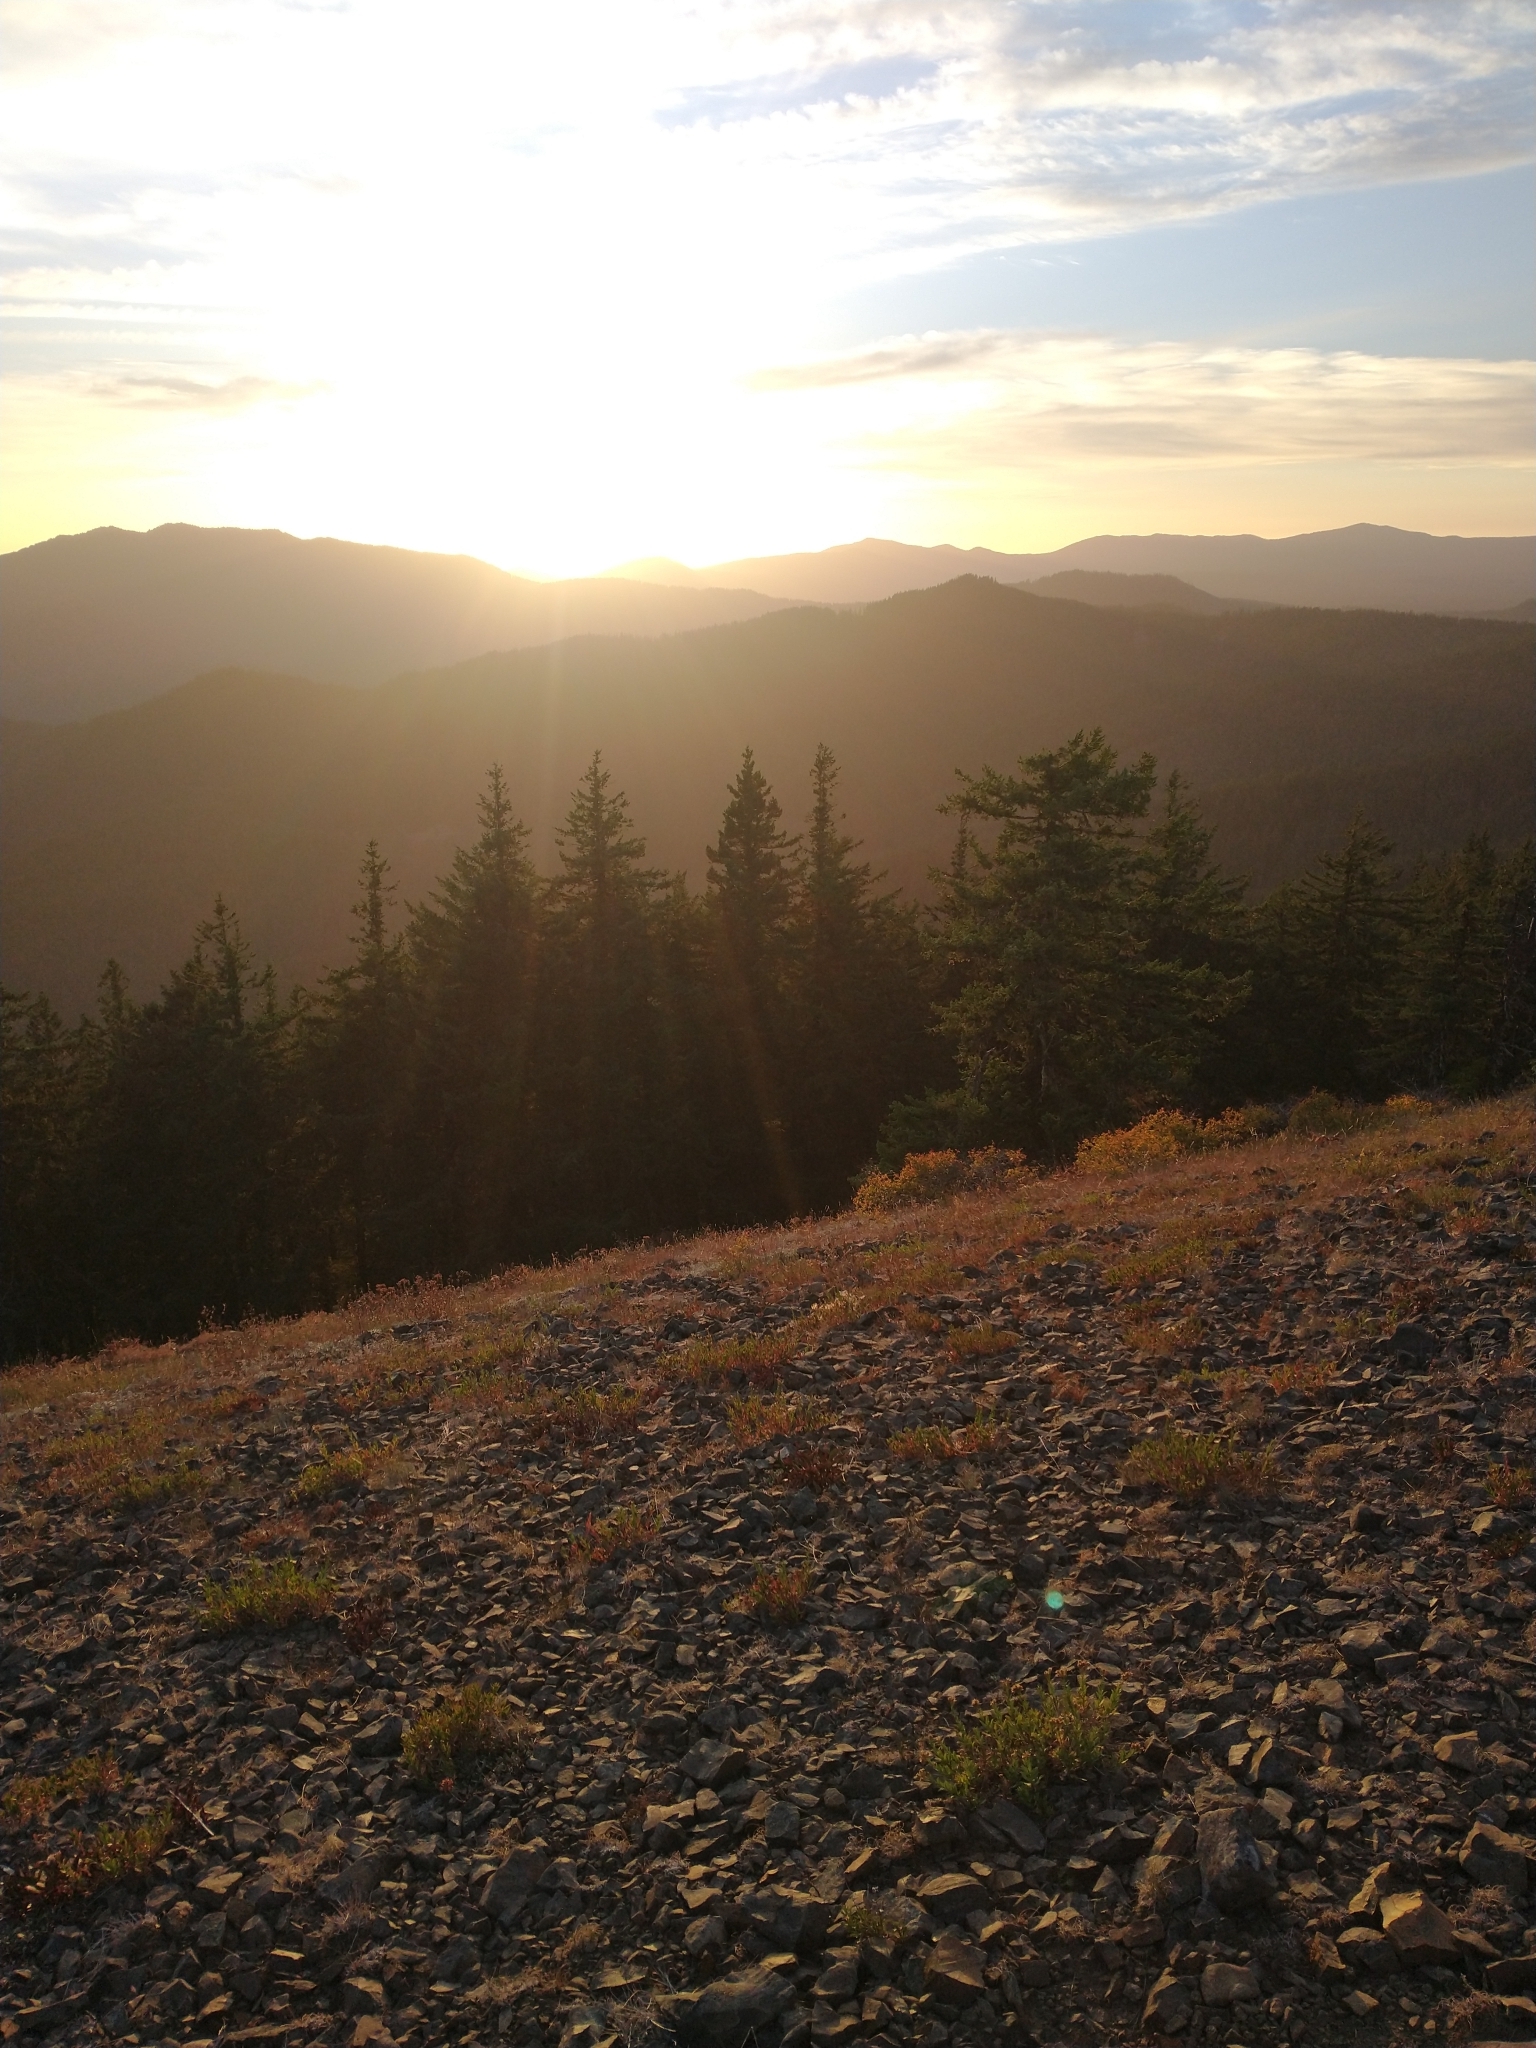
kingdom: Plantae
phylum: Tracheophyta
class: Pinopsida
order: Pinales
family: Pinaceae
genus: Pseudotsuga
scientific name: Pseudotsuga menziesii
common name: Douglas fir
